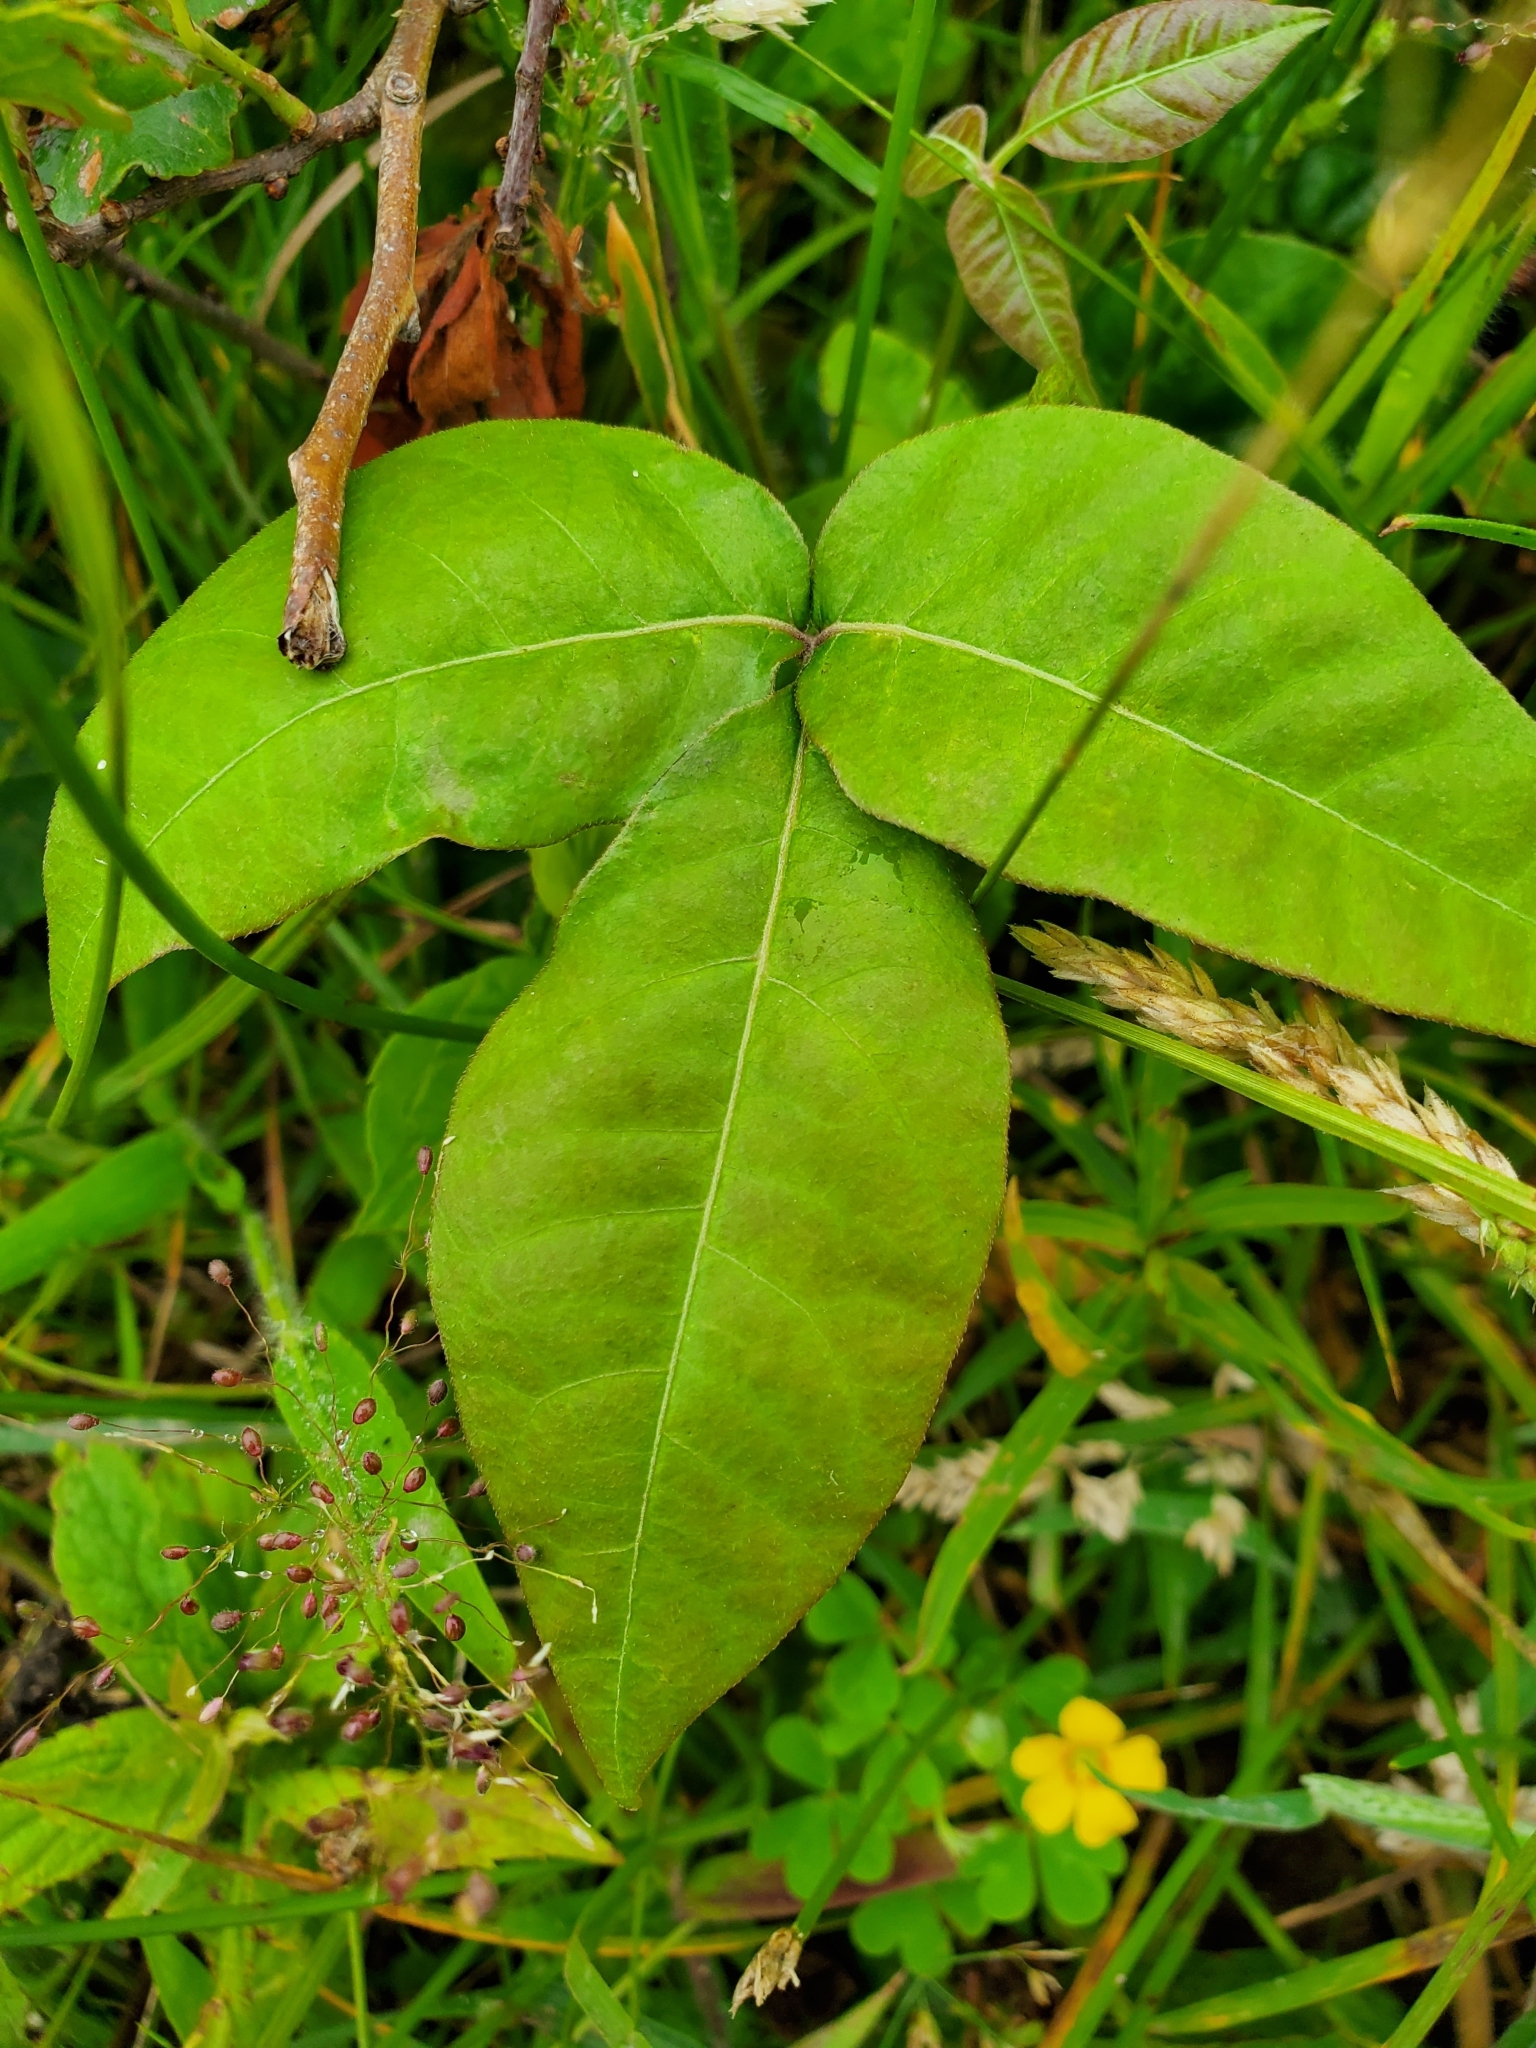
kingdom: Plantae
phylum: Tracheophyta
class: Magnoliopsida
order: Sapindales
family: Anacardiaceae
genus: Toxicodendron
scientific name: Toxicodendron radicans
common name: Poison ivy
